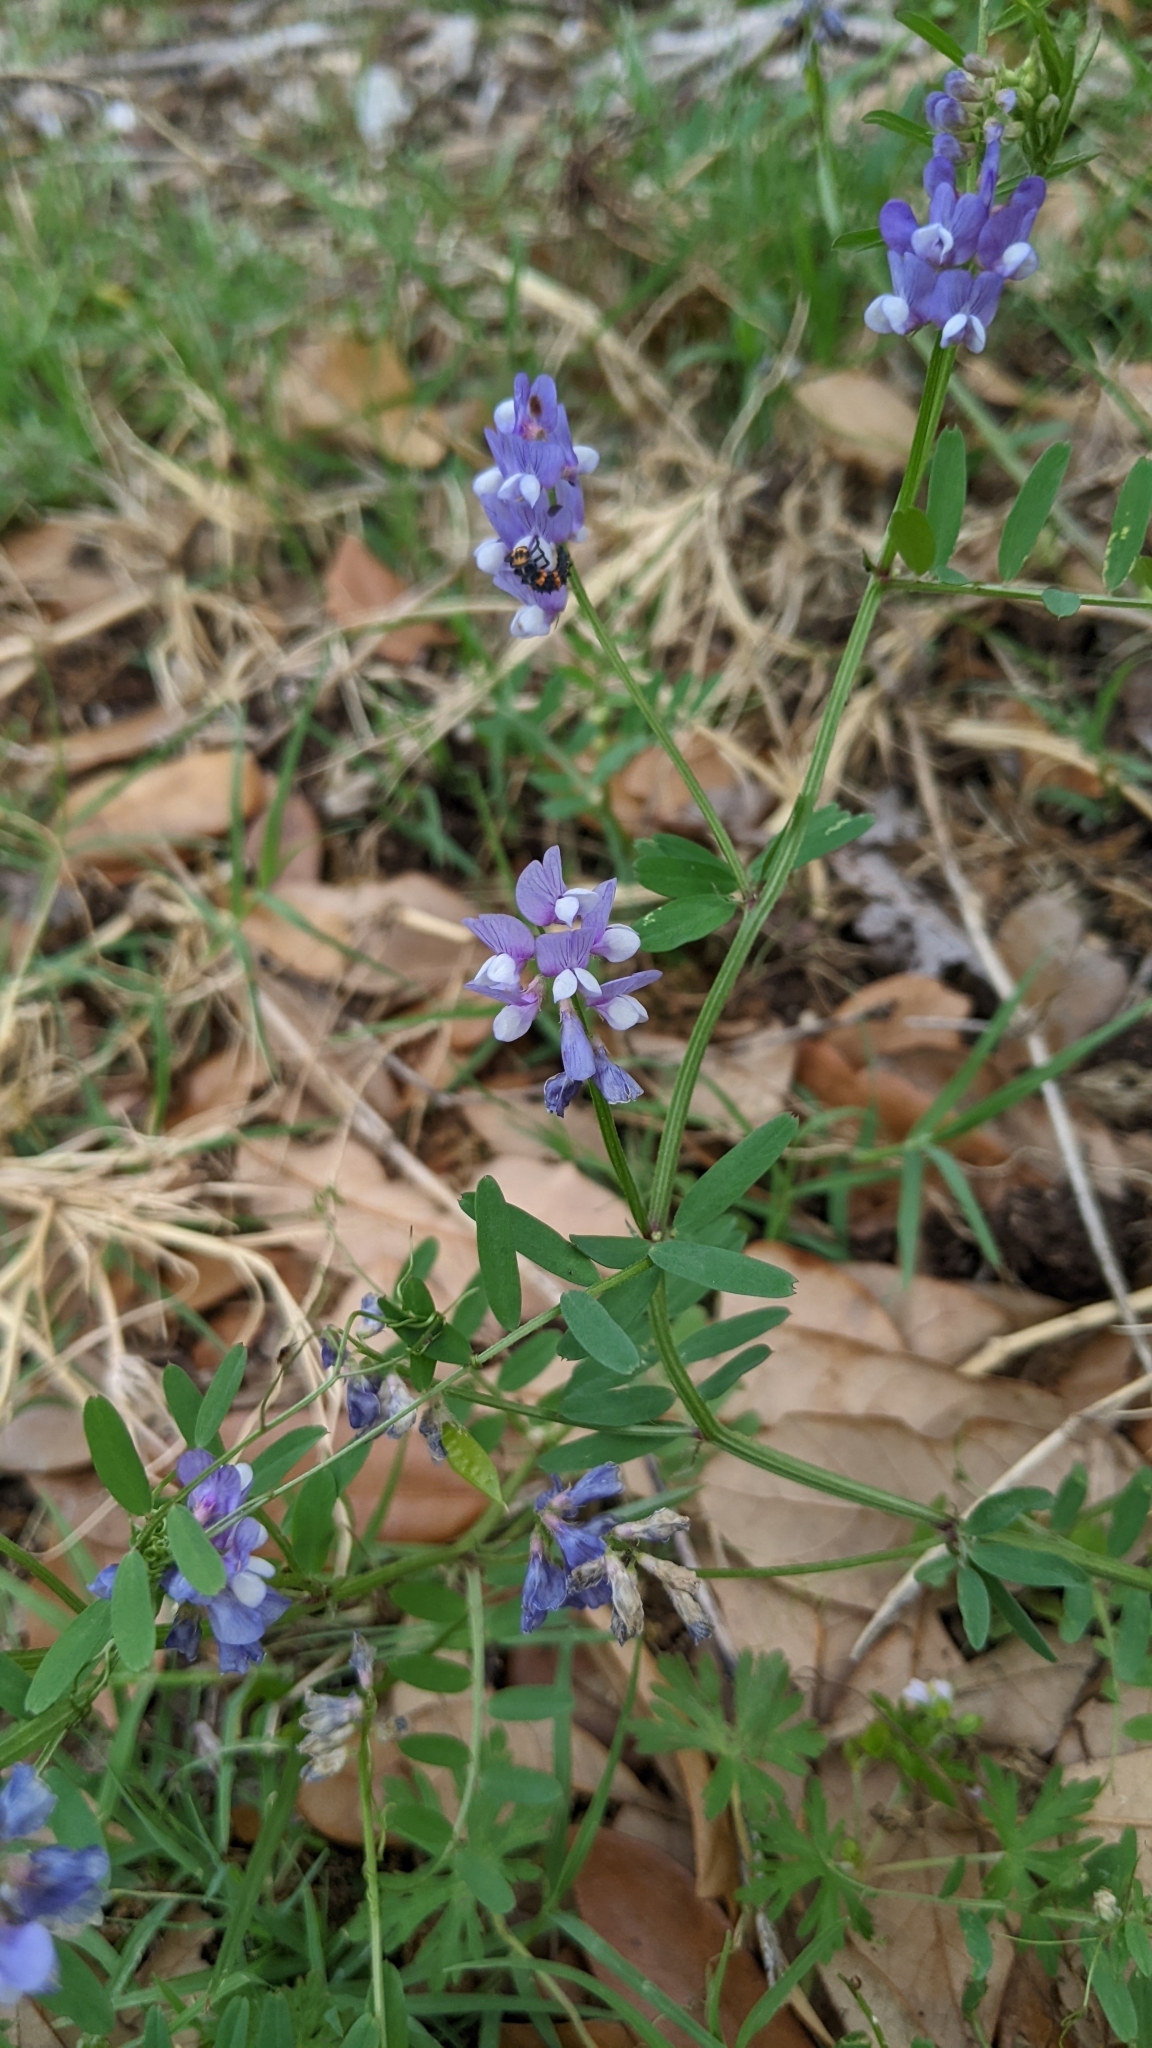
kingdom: Plantae
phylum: Tracheophyta
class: Magnoliopsida
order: Fabales
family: Fabaceae
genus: Vicia
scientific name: Vicia ludoviciana
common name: Louisiana vetch
